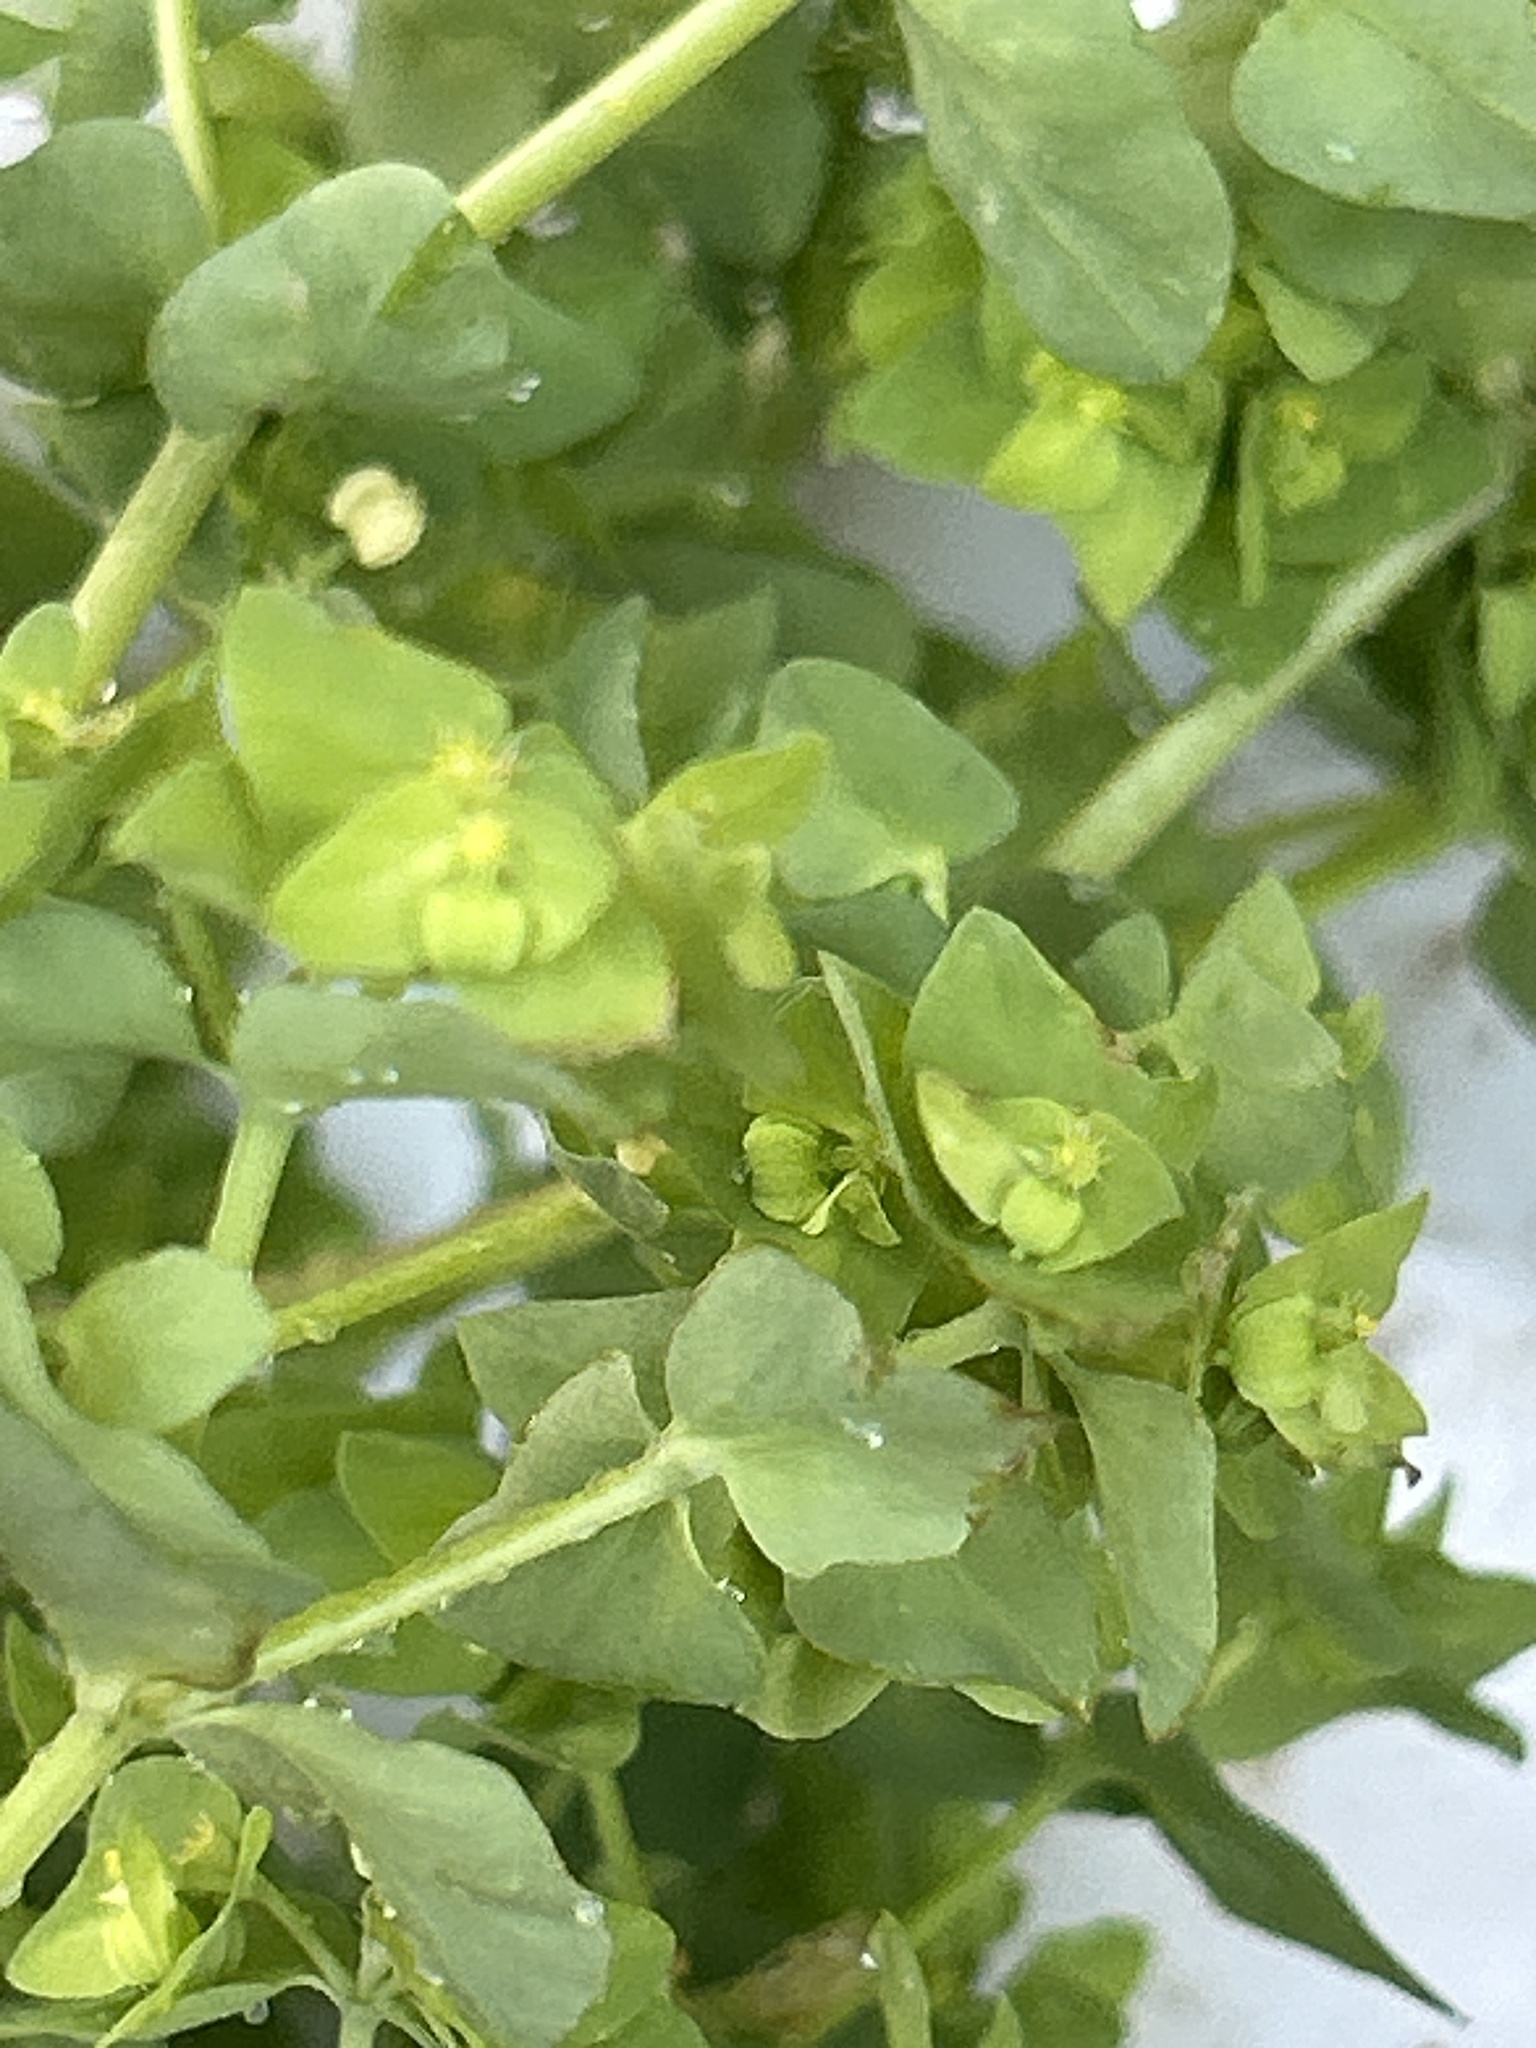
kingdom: Plantae
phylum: Tracheophyta
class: Magnoliopsida
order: Malpighiales
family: Euphorbiaceae
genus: Euphorbia
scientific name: Euphorbia peplus
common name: Petty spurge
